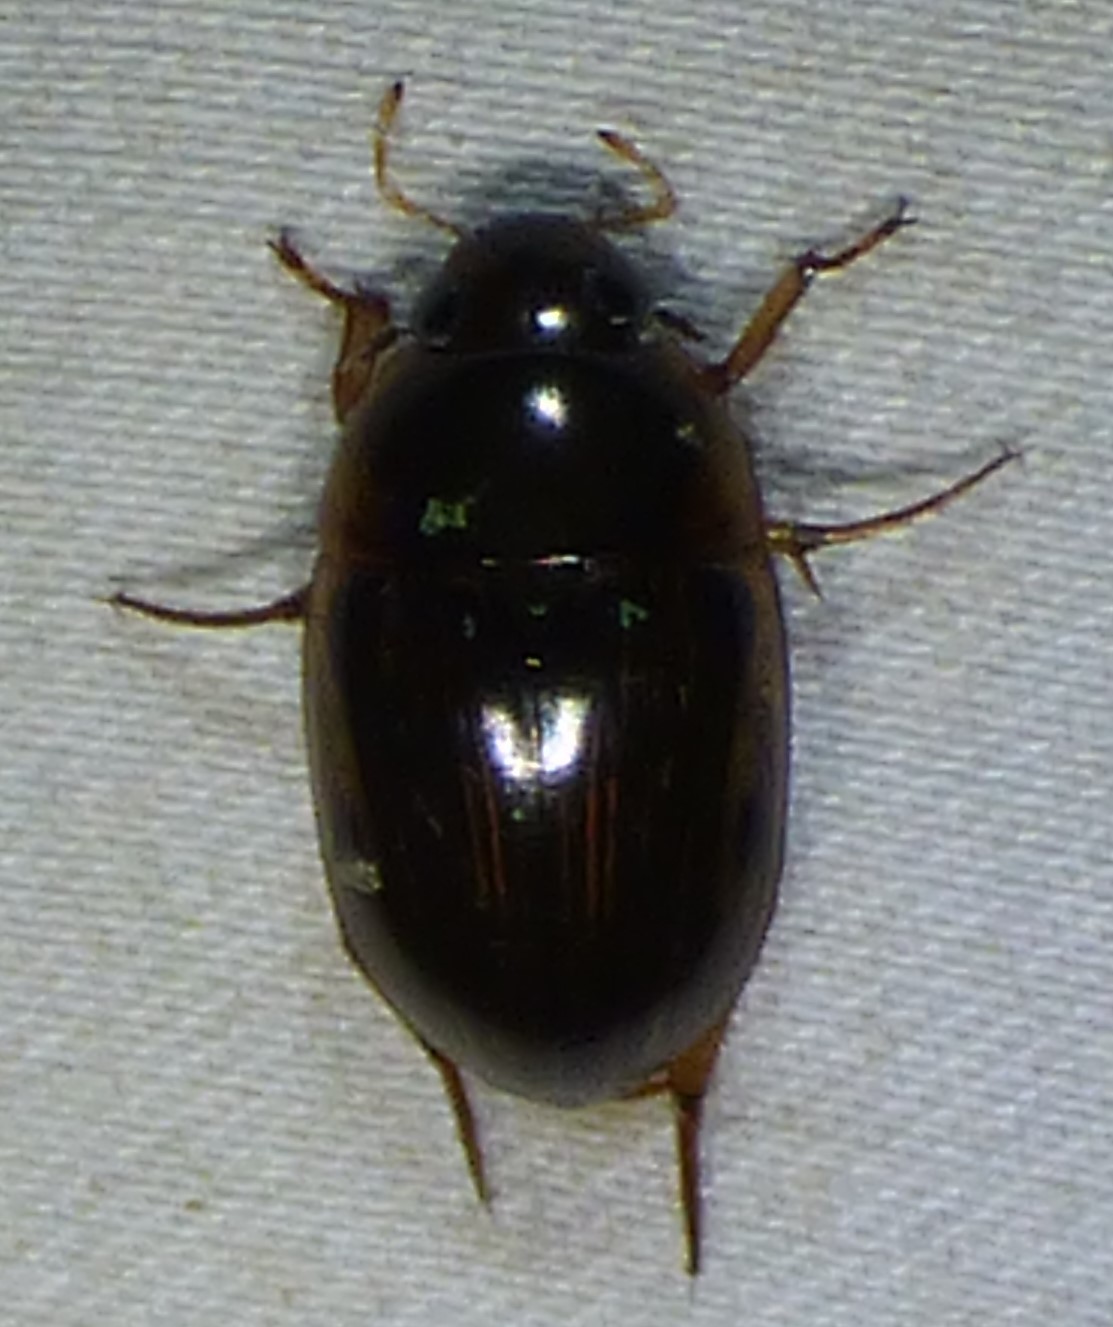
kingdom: Animalia
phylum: Arthropoda
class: Insecta
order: Coleoptera
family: Hydrophilidae
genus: Tropisternus
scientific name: Tropisternus collaris
